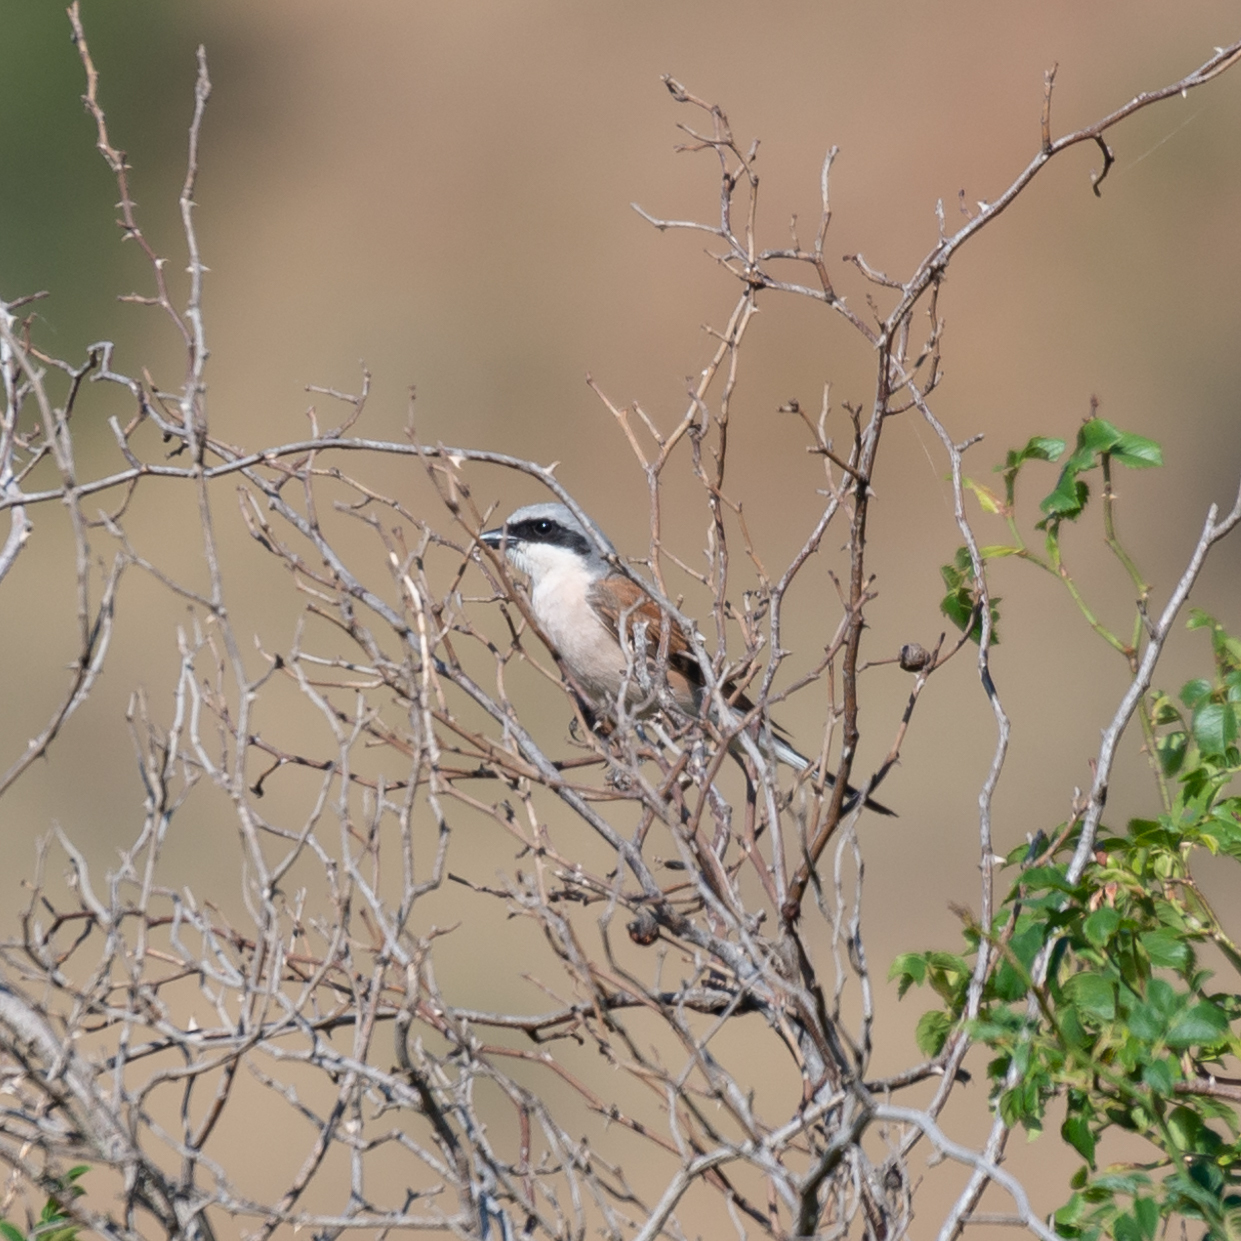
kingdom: Animalia
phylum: Chordata
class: Aves
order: Passeriformes
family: Laniidae
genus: Lanius
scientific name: Lanius collurio
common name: Red-backed shrike
